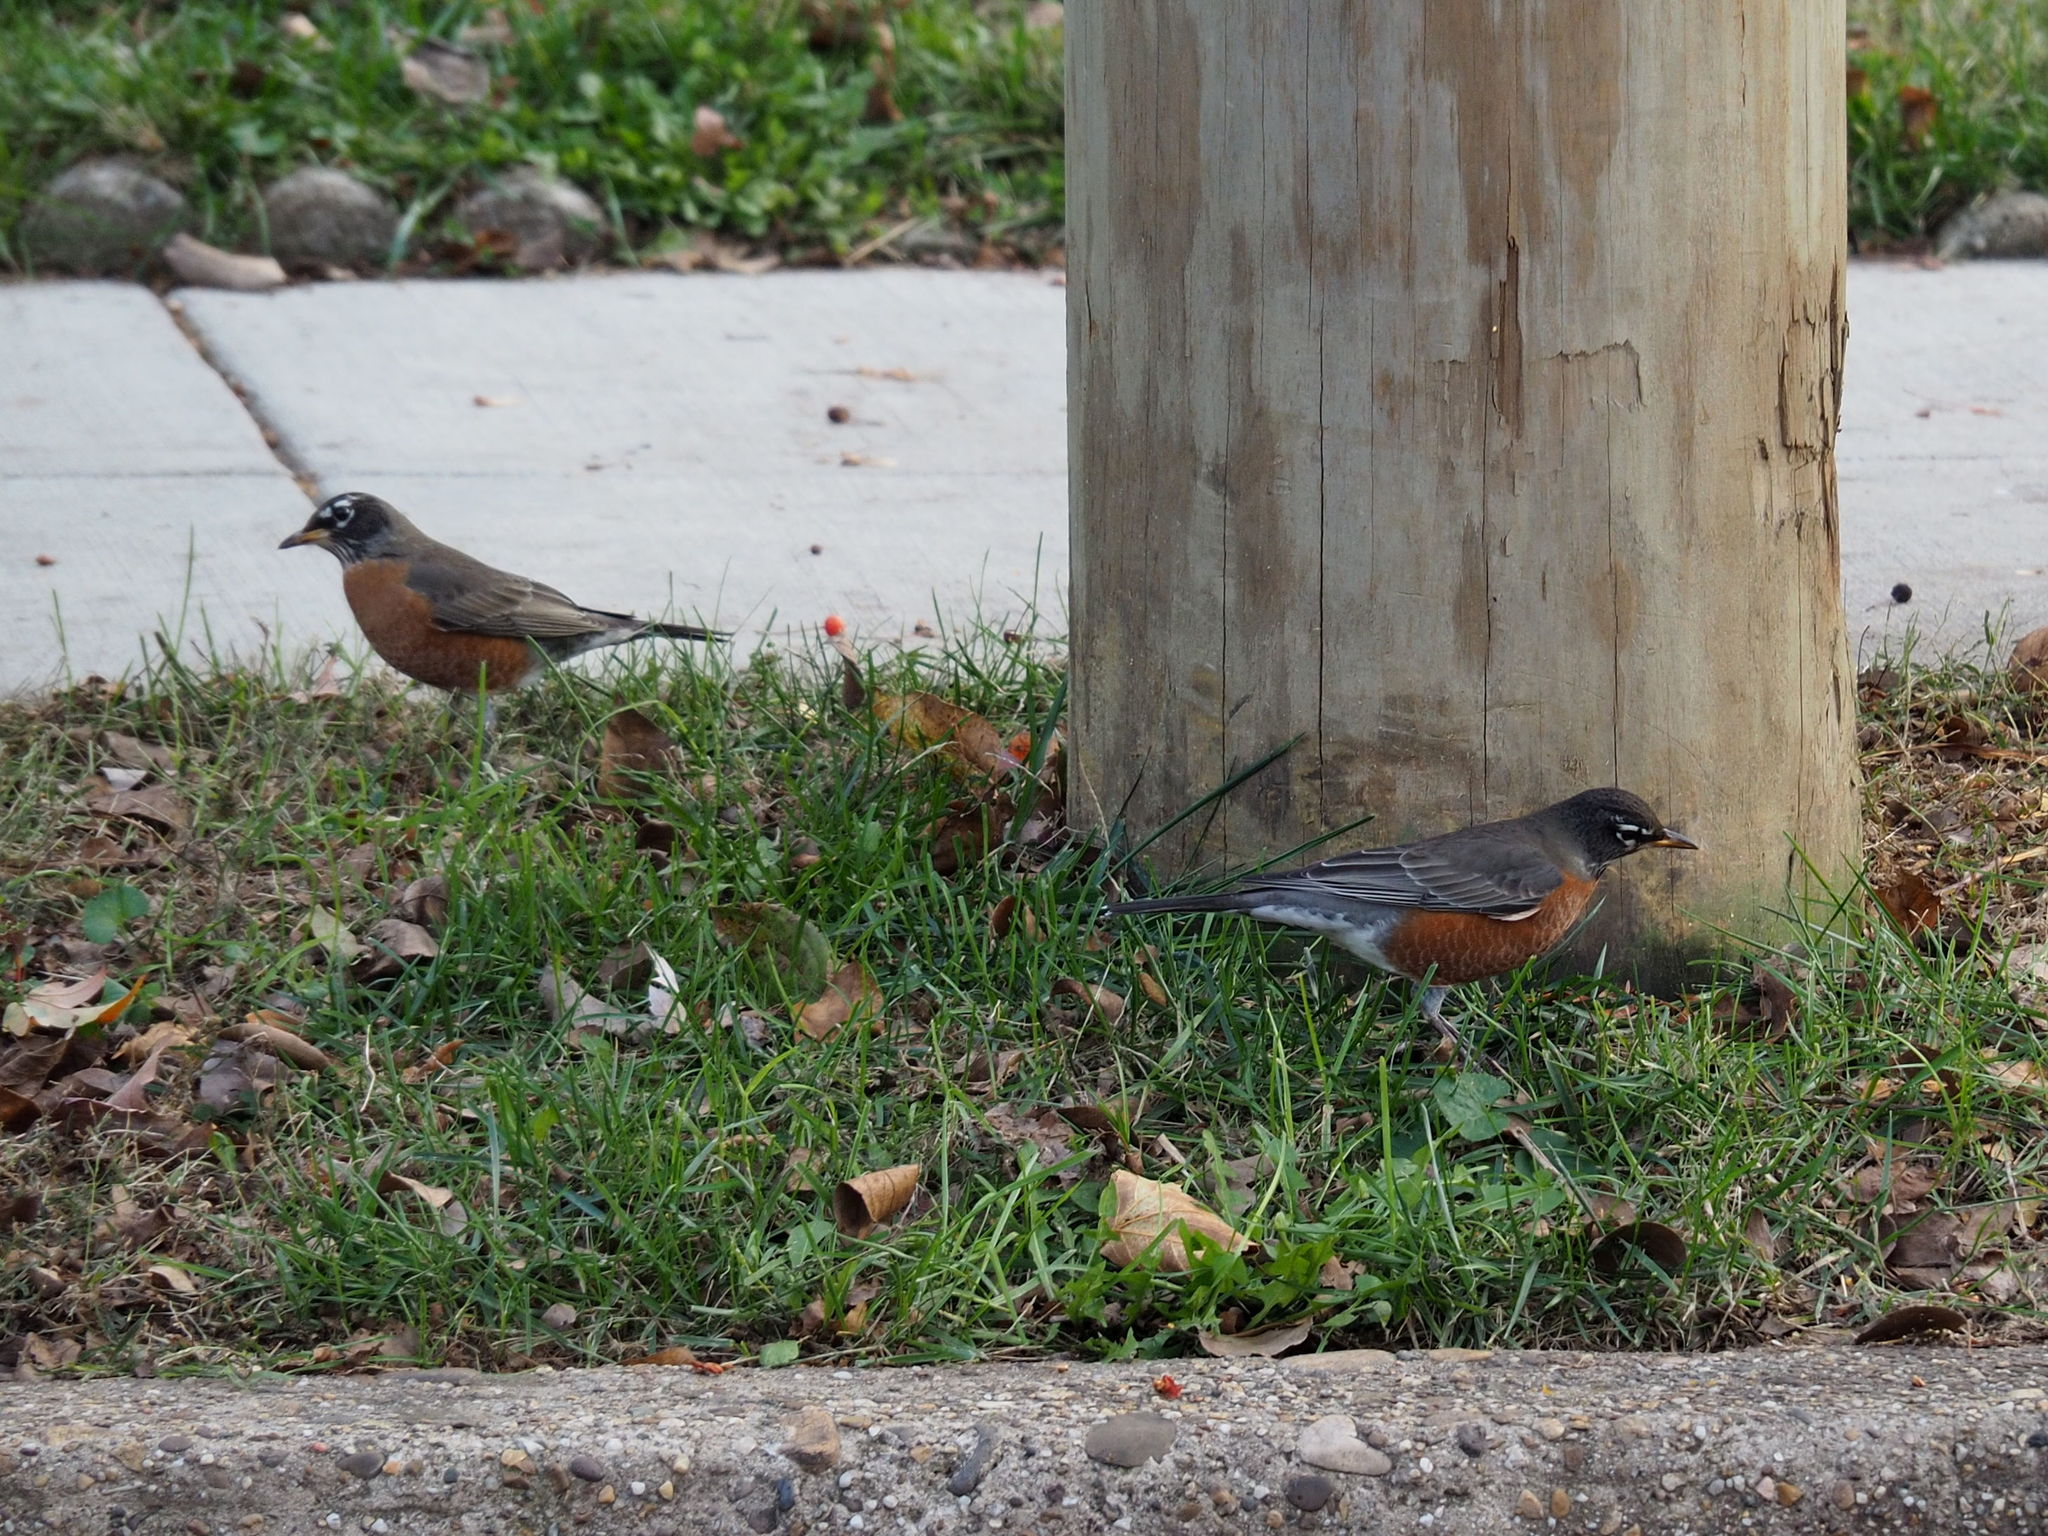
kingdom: Animalia
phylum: Chordata
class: Aves
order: Passeriformes
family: Turdidae
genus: Turdus
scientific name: Turdus migratorius
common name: American robin
